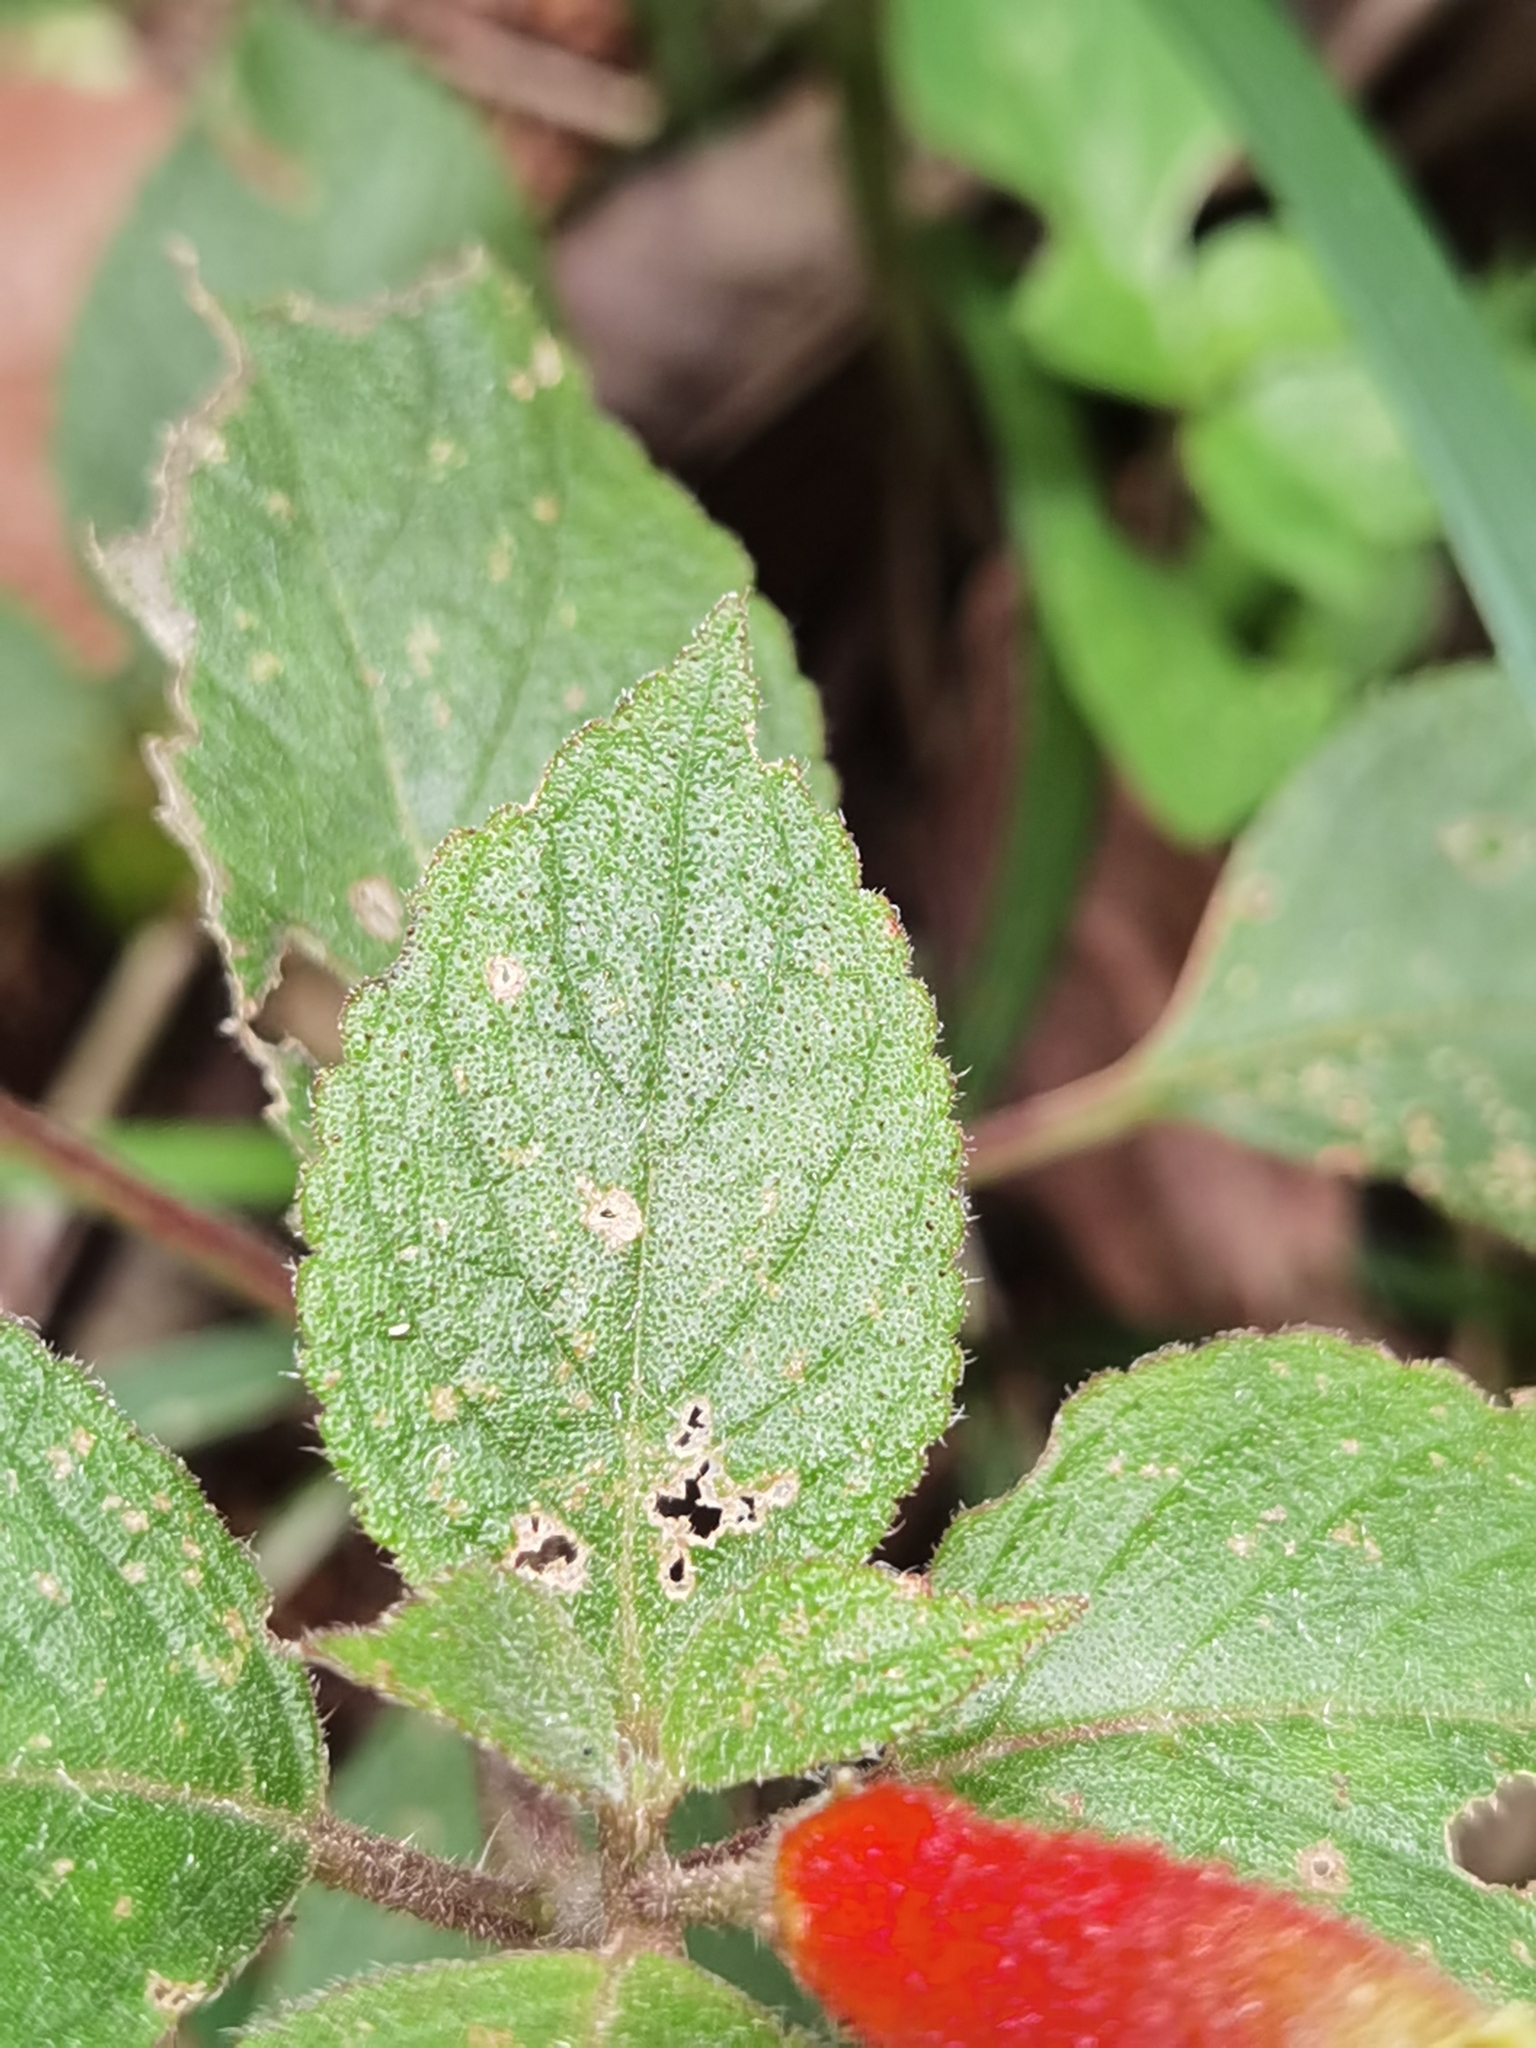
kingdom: Plantae
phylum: Tracheophyta
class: Magnoliopsida
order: Lamiales
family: Gesneriaceae
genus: Kohleria
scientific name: Kohleria tubiflora
